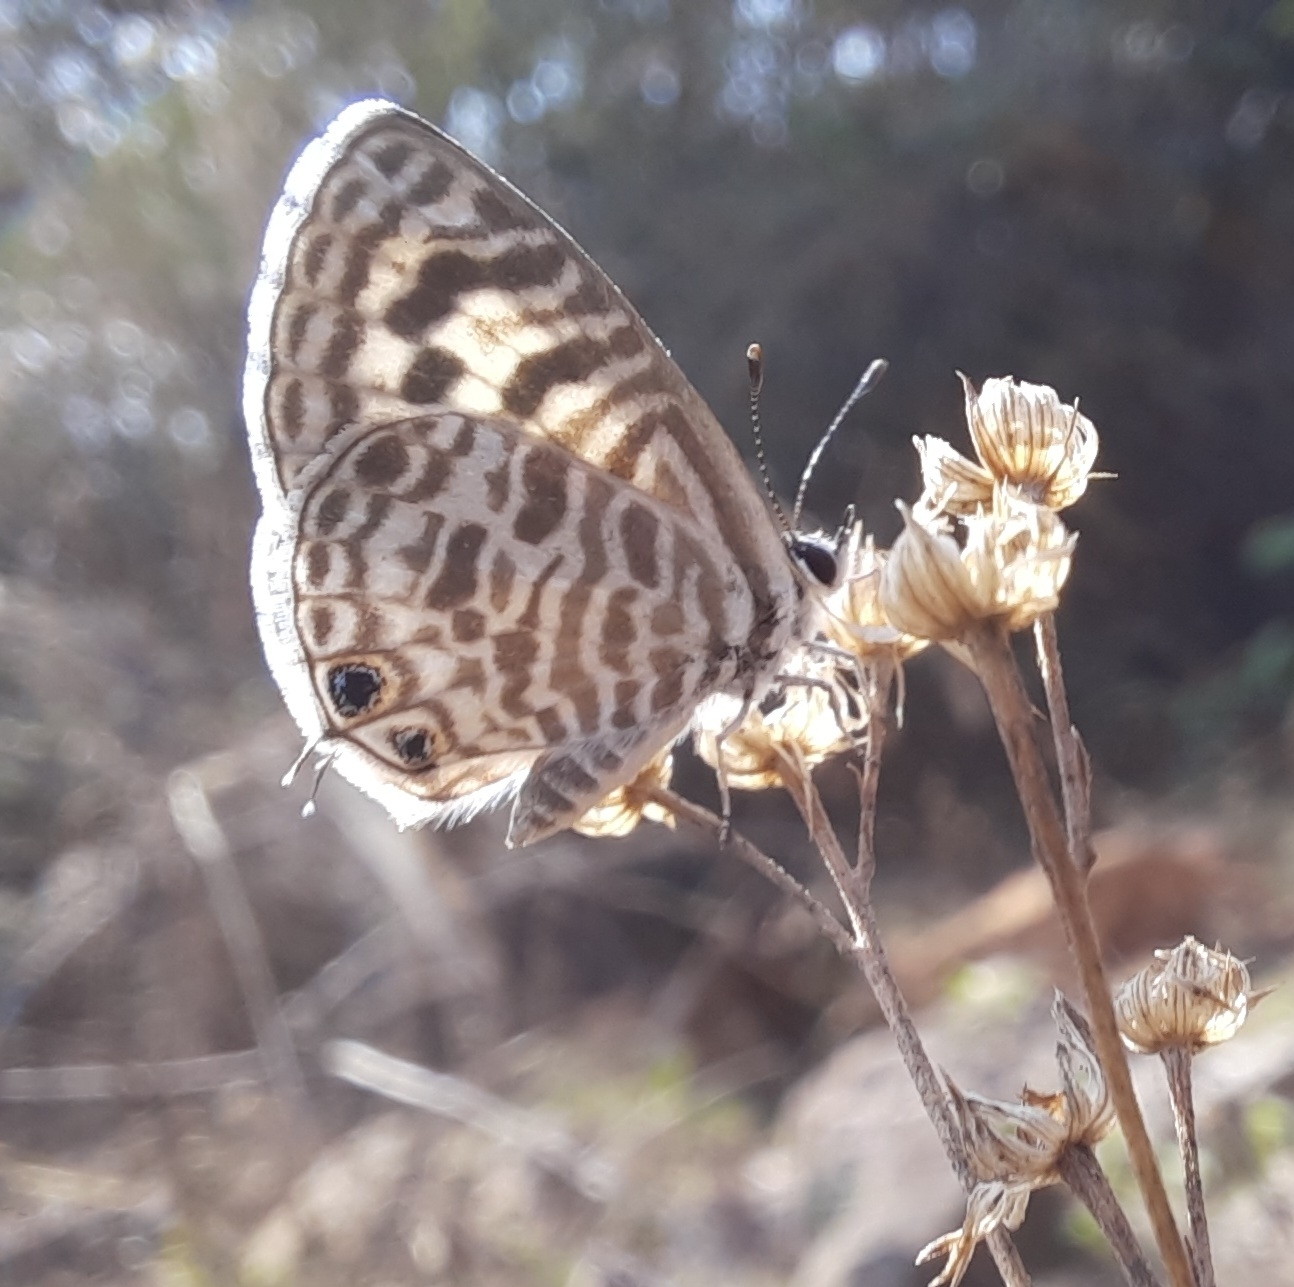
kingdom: Animalia
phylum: Arthropoda
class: Insecta
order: Lepidoptera
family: Lycaenidae
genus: Leptotes
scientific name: Leptotes plinius
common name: Zebra blue
